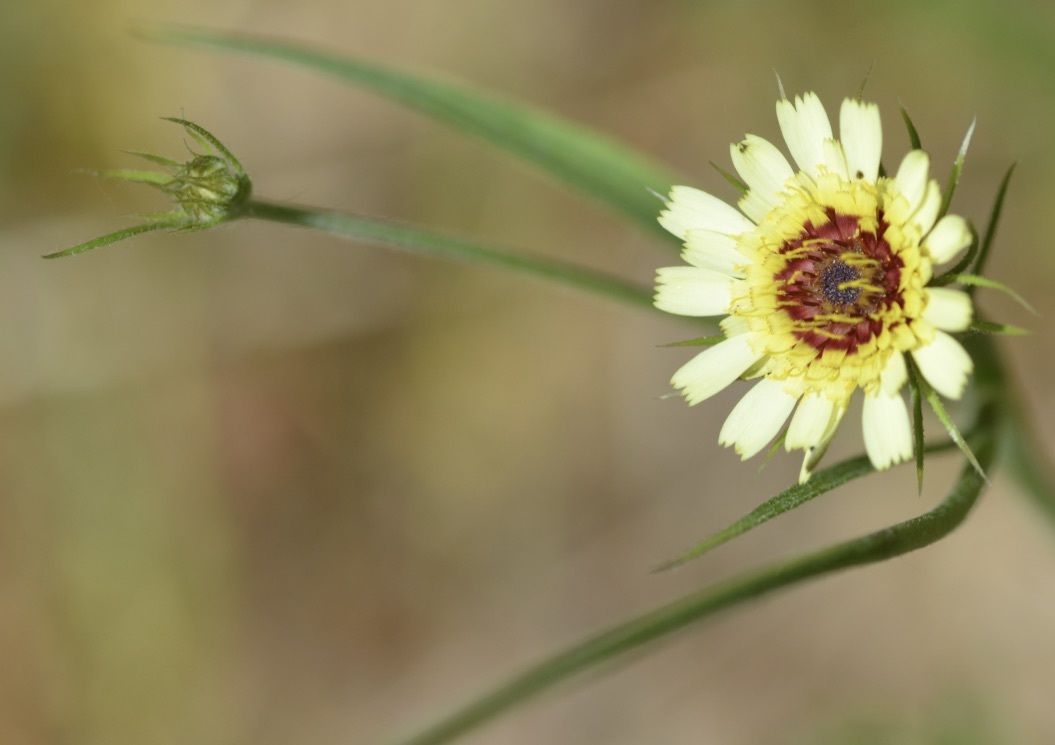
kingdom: Plantae
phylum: Tracheophyta
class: Magnoliopsida
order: Asterales
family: Asteraceae
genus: Tolpis
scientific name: Tolpis barbata
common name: Yellow hawkweed
